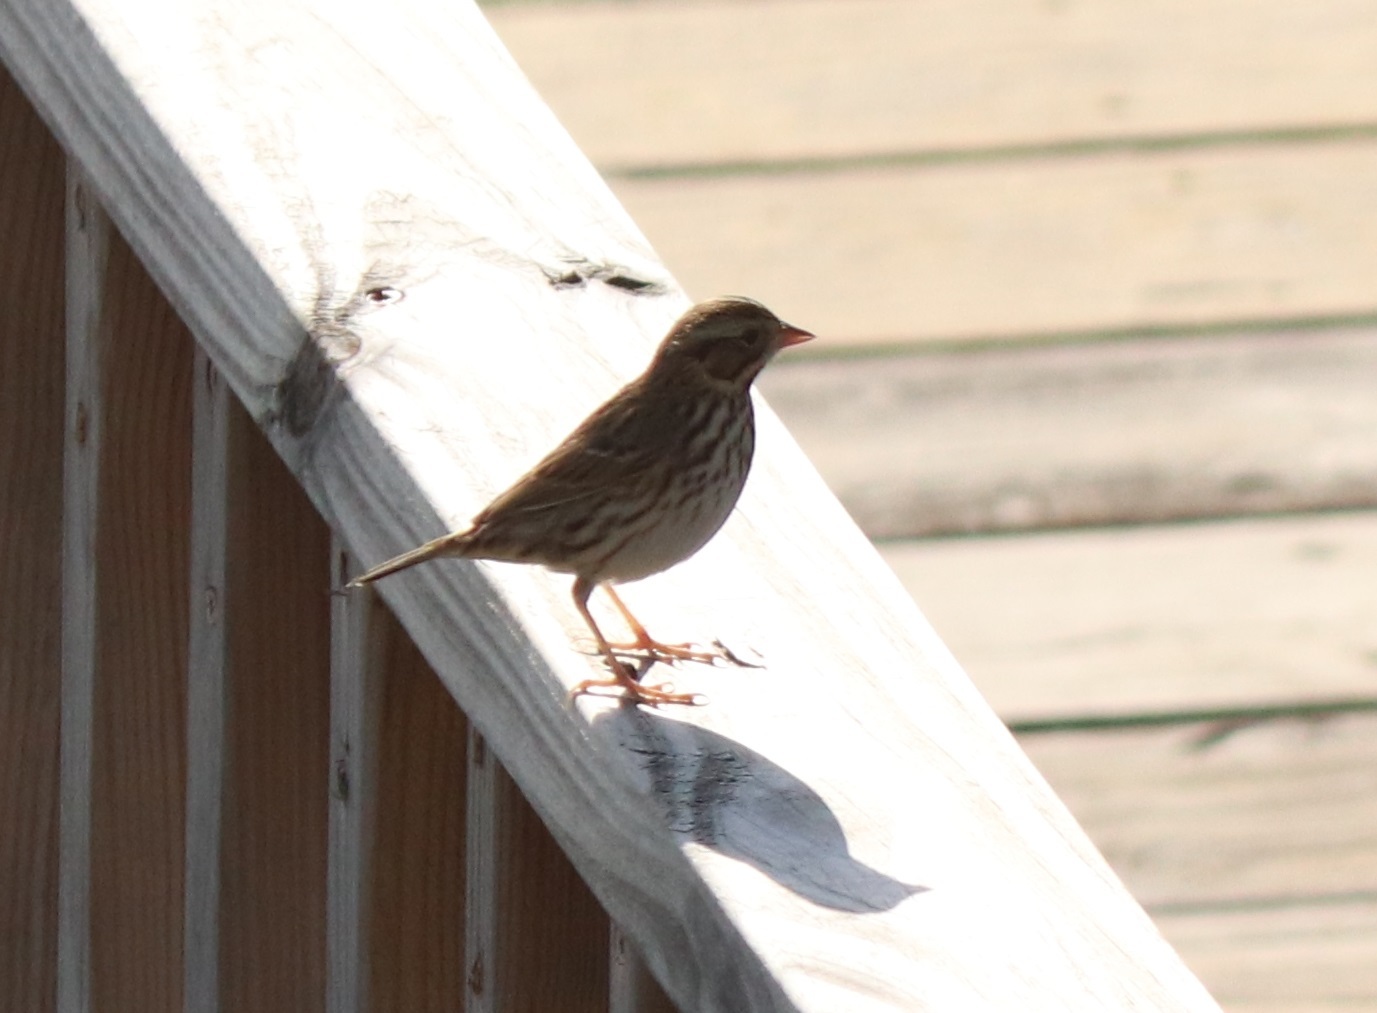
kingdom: Animalia
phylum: Chordata
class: Aves
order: Passeriformes
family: Passerellidae
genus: Passerculus
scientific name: Passerculus sandwichensis
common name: Savannah sparrow
